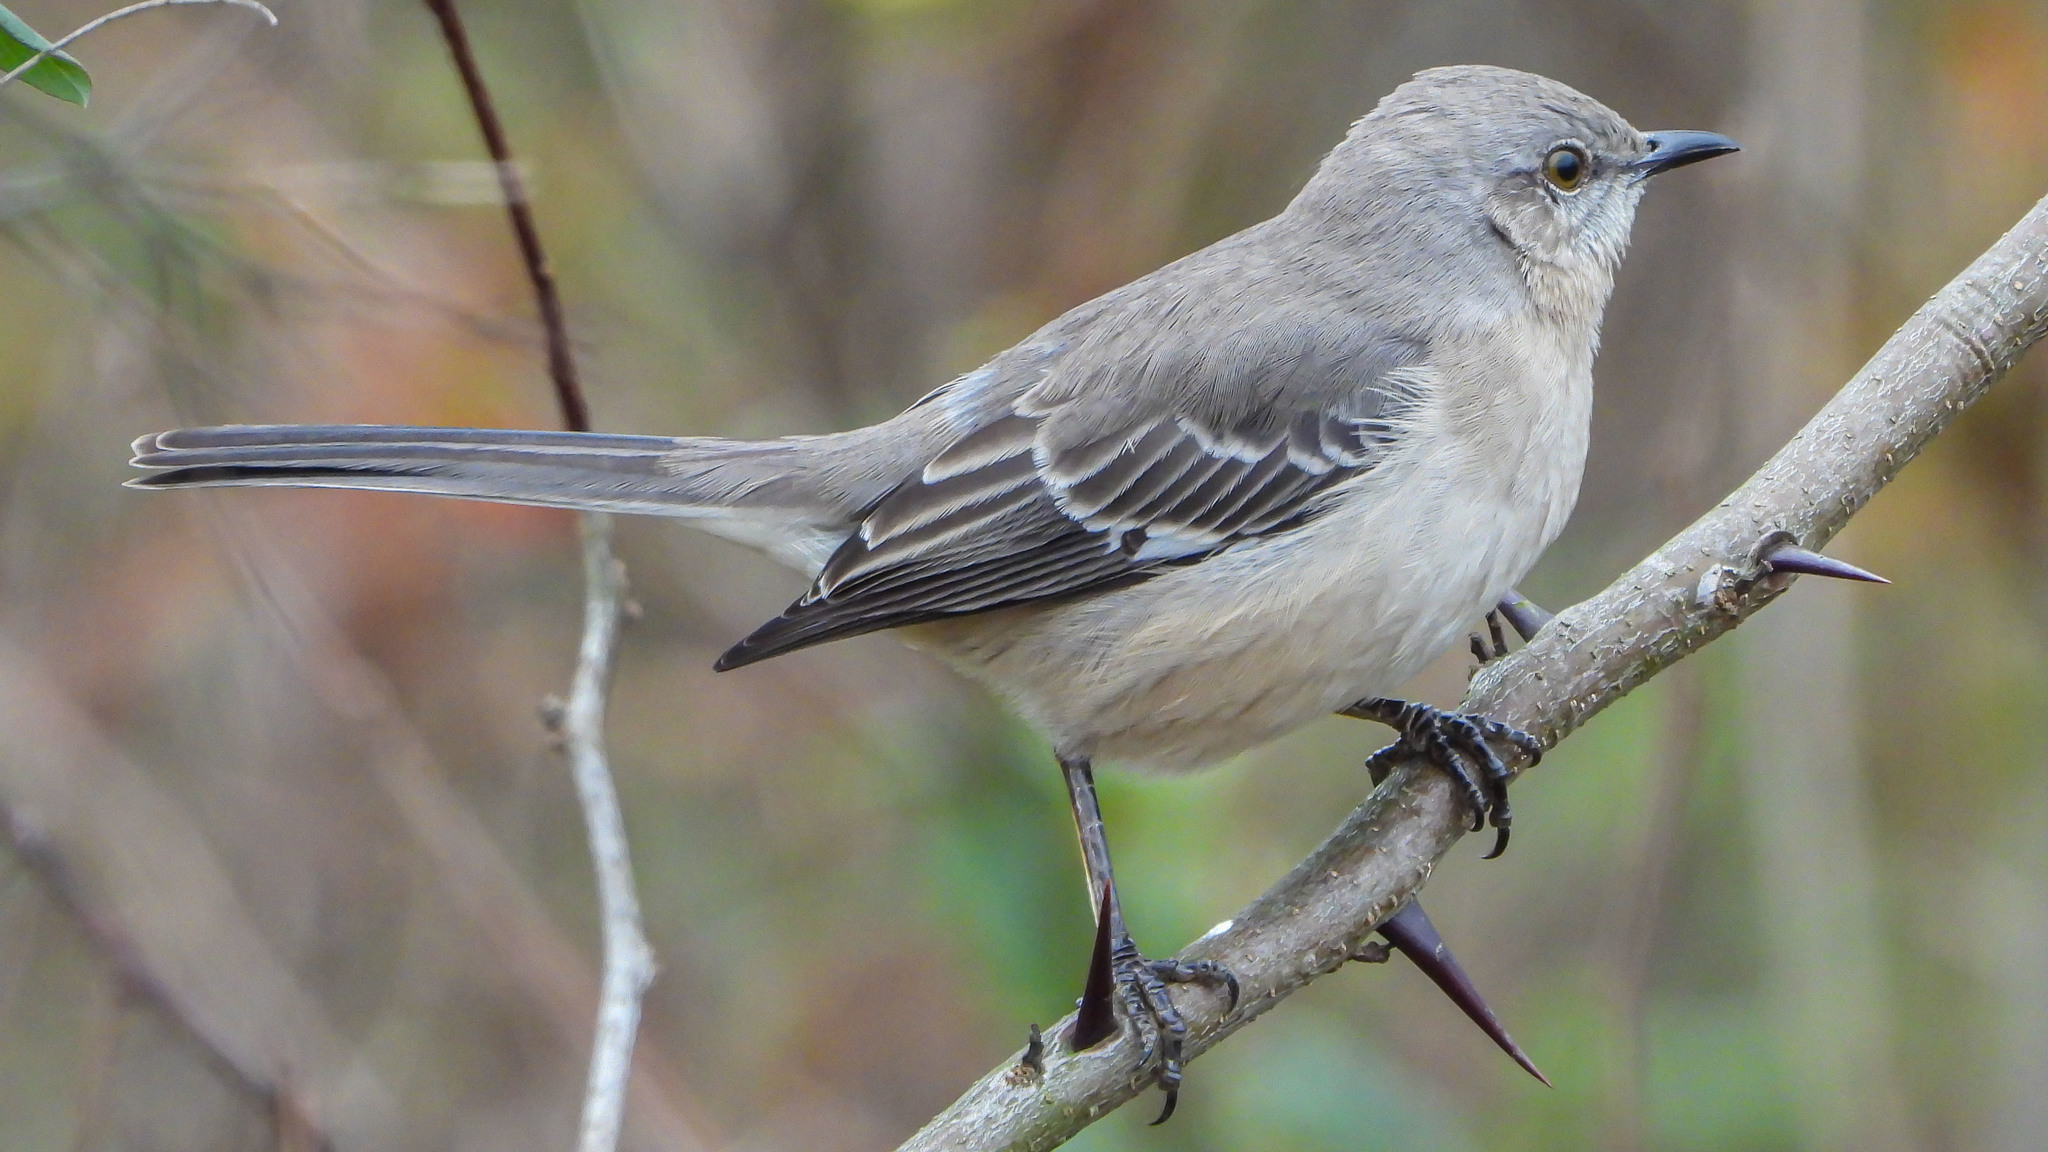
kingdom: Animalia
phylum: Chordata
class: Aves
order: Passeriformes
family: Mimidae
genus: Mimus
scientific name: Mimus polyglottos
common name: Northern mockingbird
